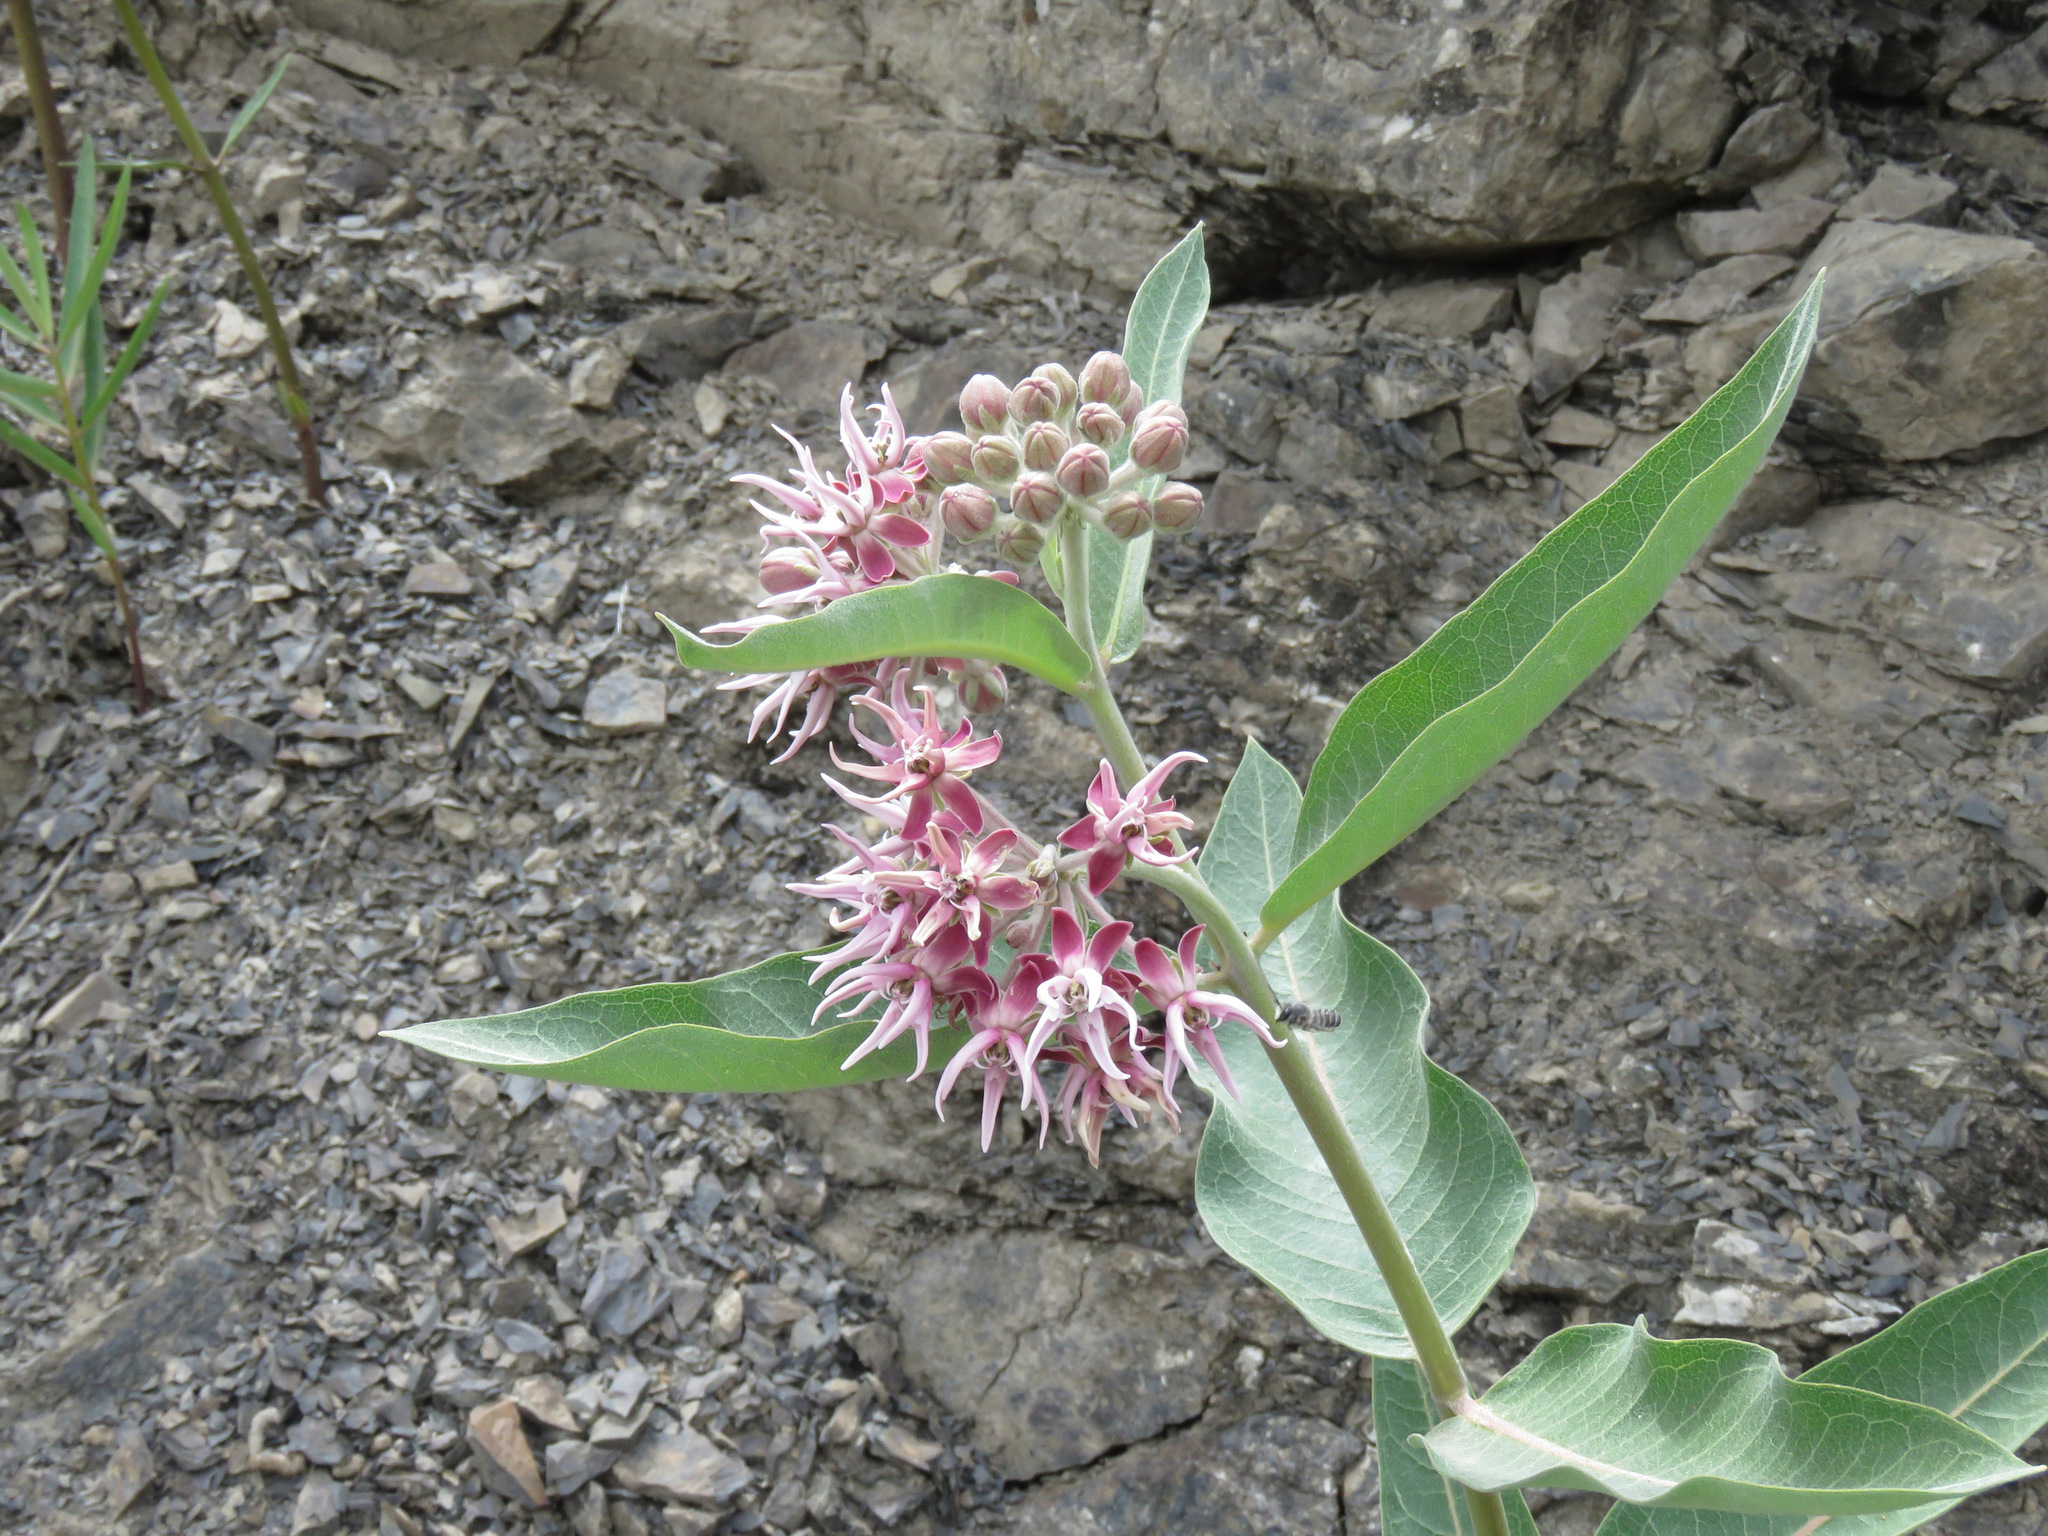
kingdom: Plantae
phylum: Tracheophyta
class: Magnoliopsida
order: Gentianales
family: Apocynaceae
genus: Asclepias
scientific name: Asclepias speciosa
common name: Showy milkweed
